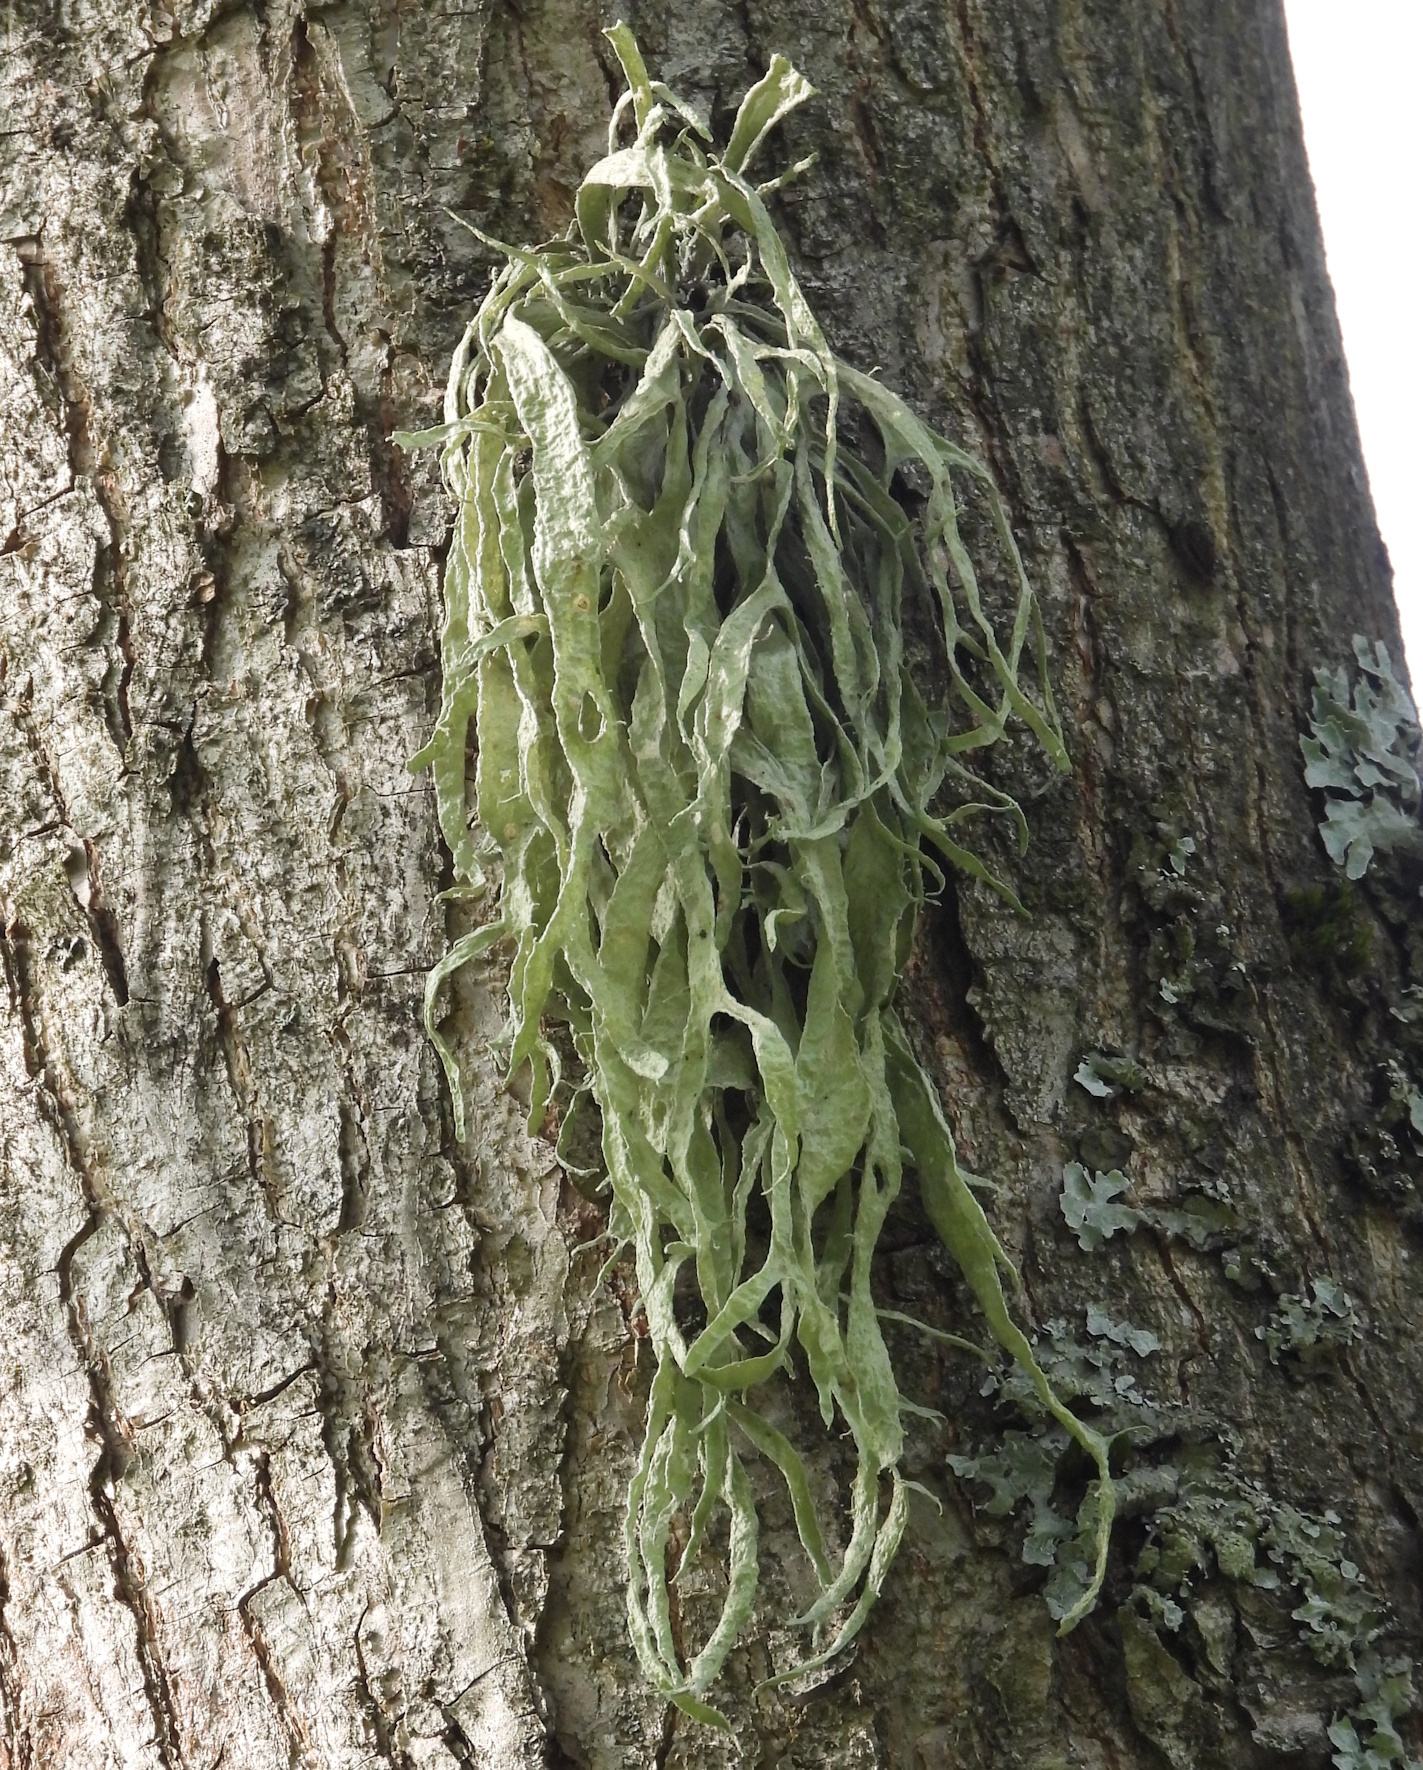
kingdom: Fungi
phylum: Ascomycota
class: Lecanoromycetes
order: Lecanorales
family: Ramalinaceae
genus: Ramalina
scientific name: Ramalina fraxinea
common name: Cartilage lichen
